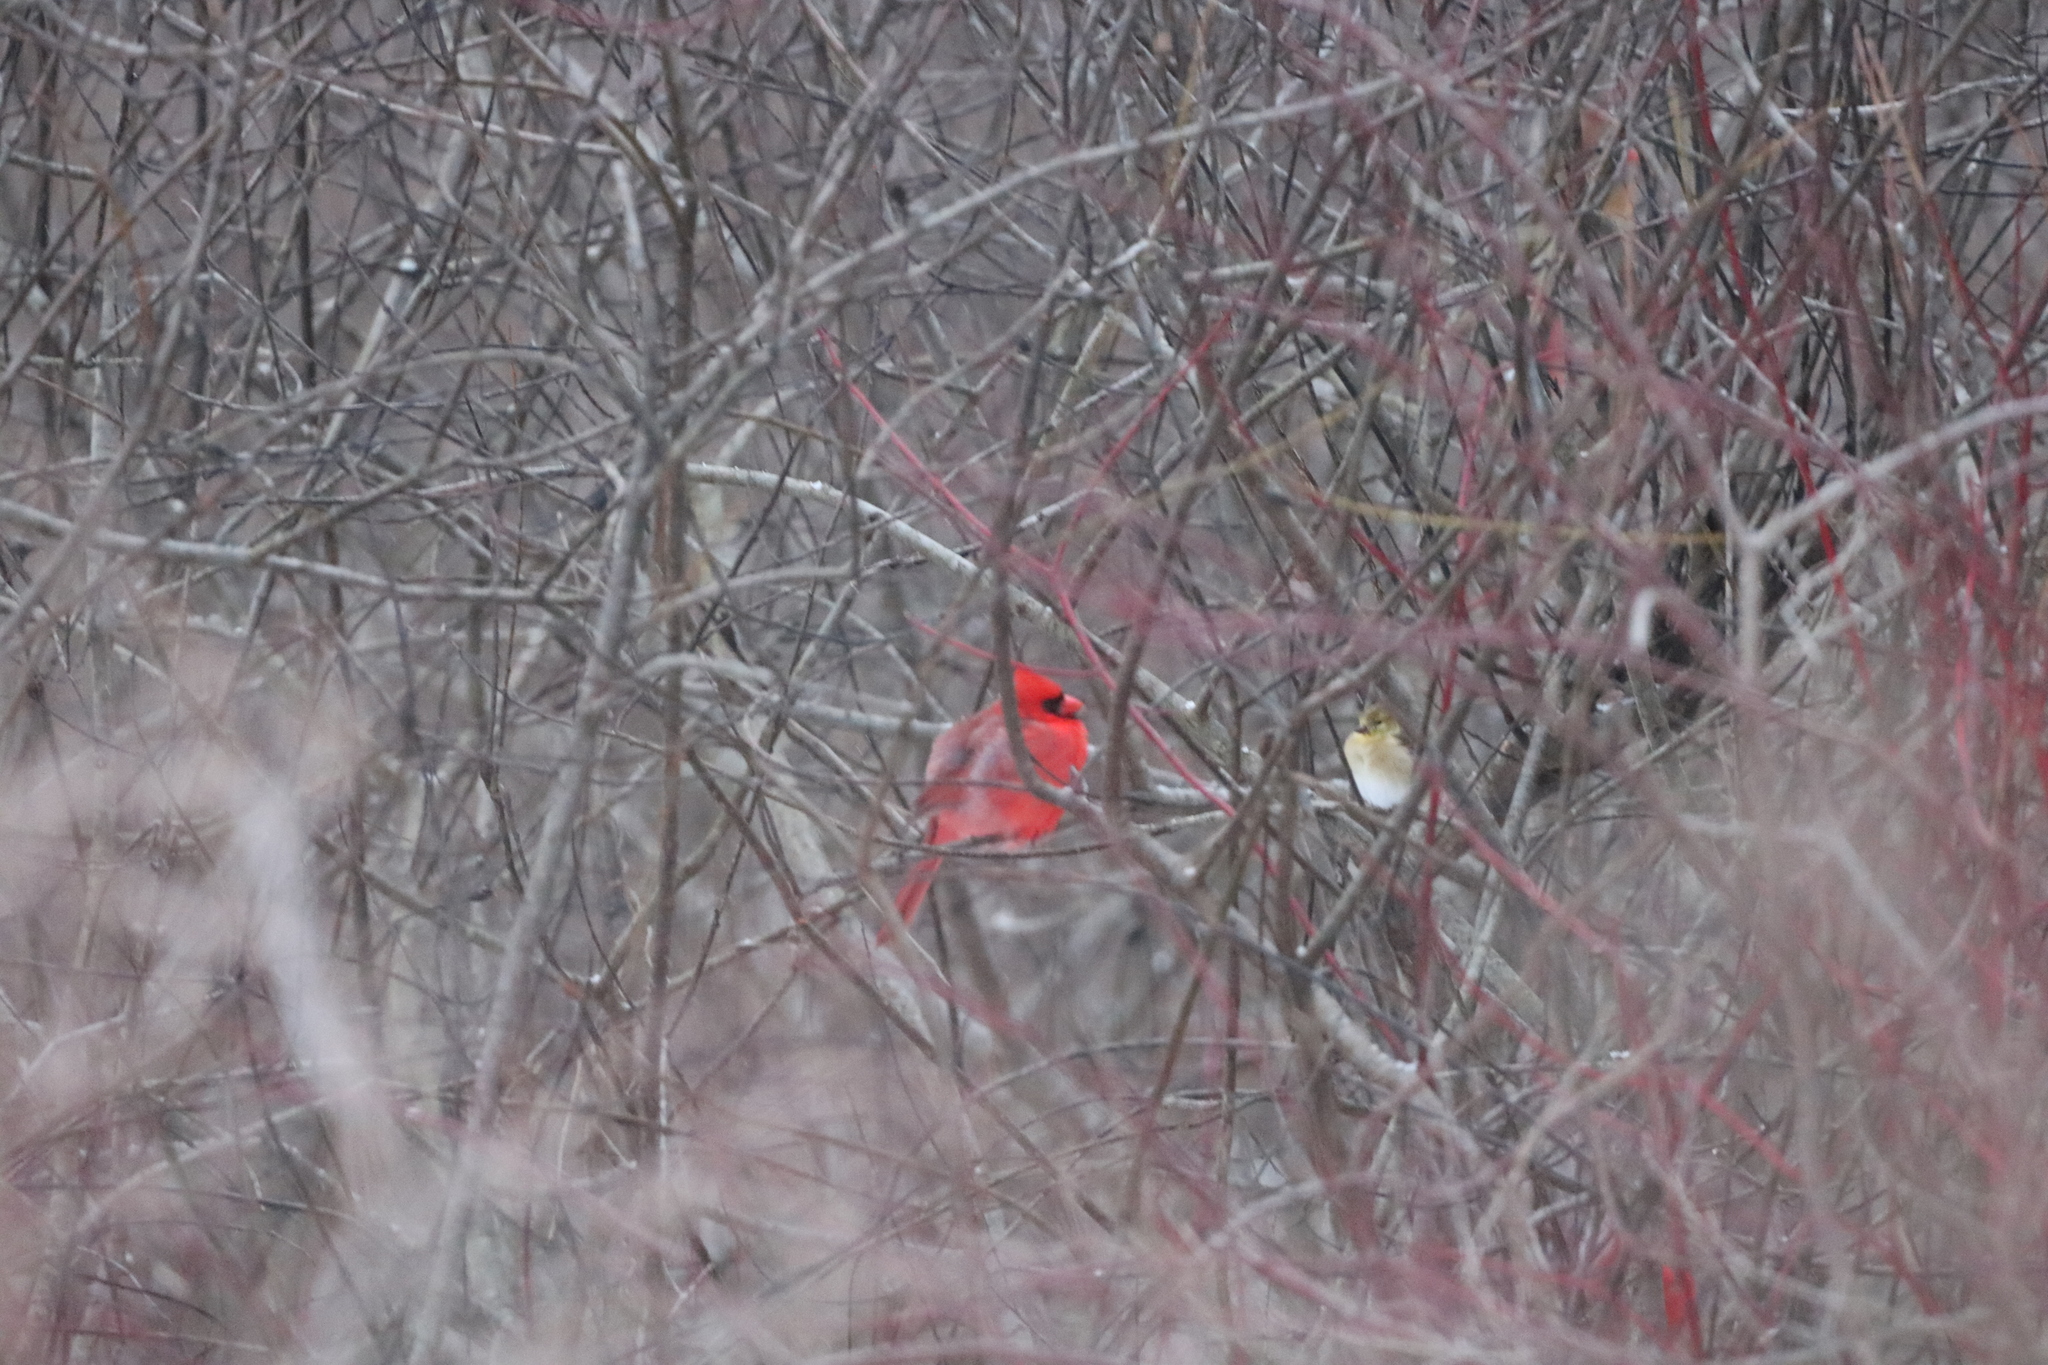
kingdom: Animalia
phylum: Chordata
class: Aves
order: Passeriformes
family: Cardinalidae
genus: Cardinalis
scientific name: Cardinalis cardinalis
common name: Northern cardinal
